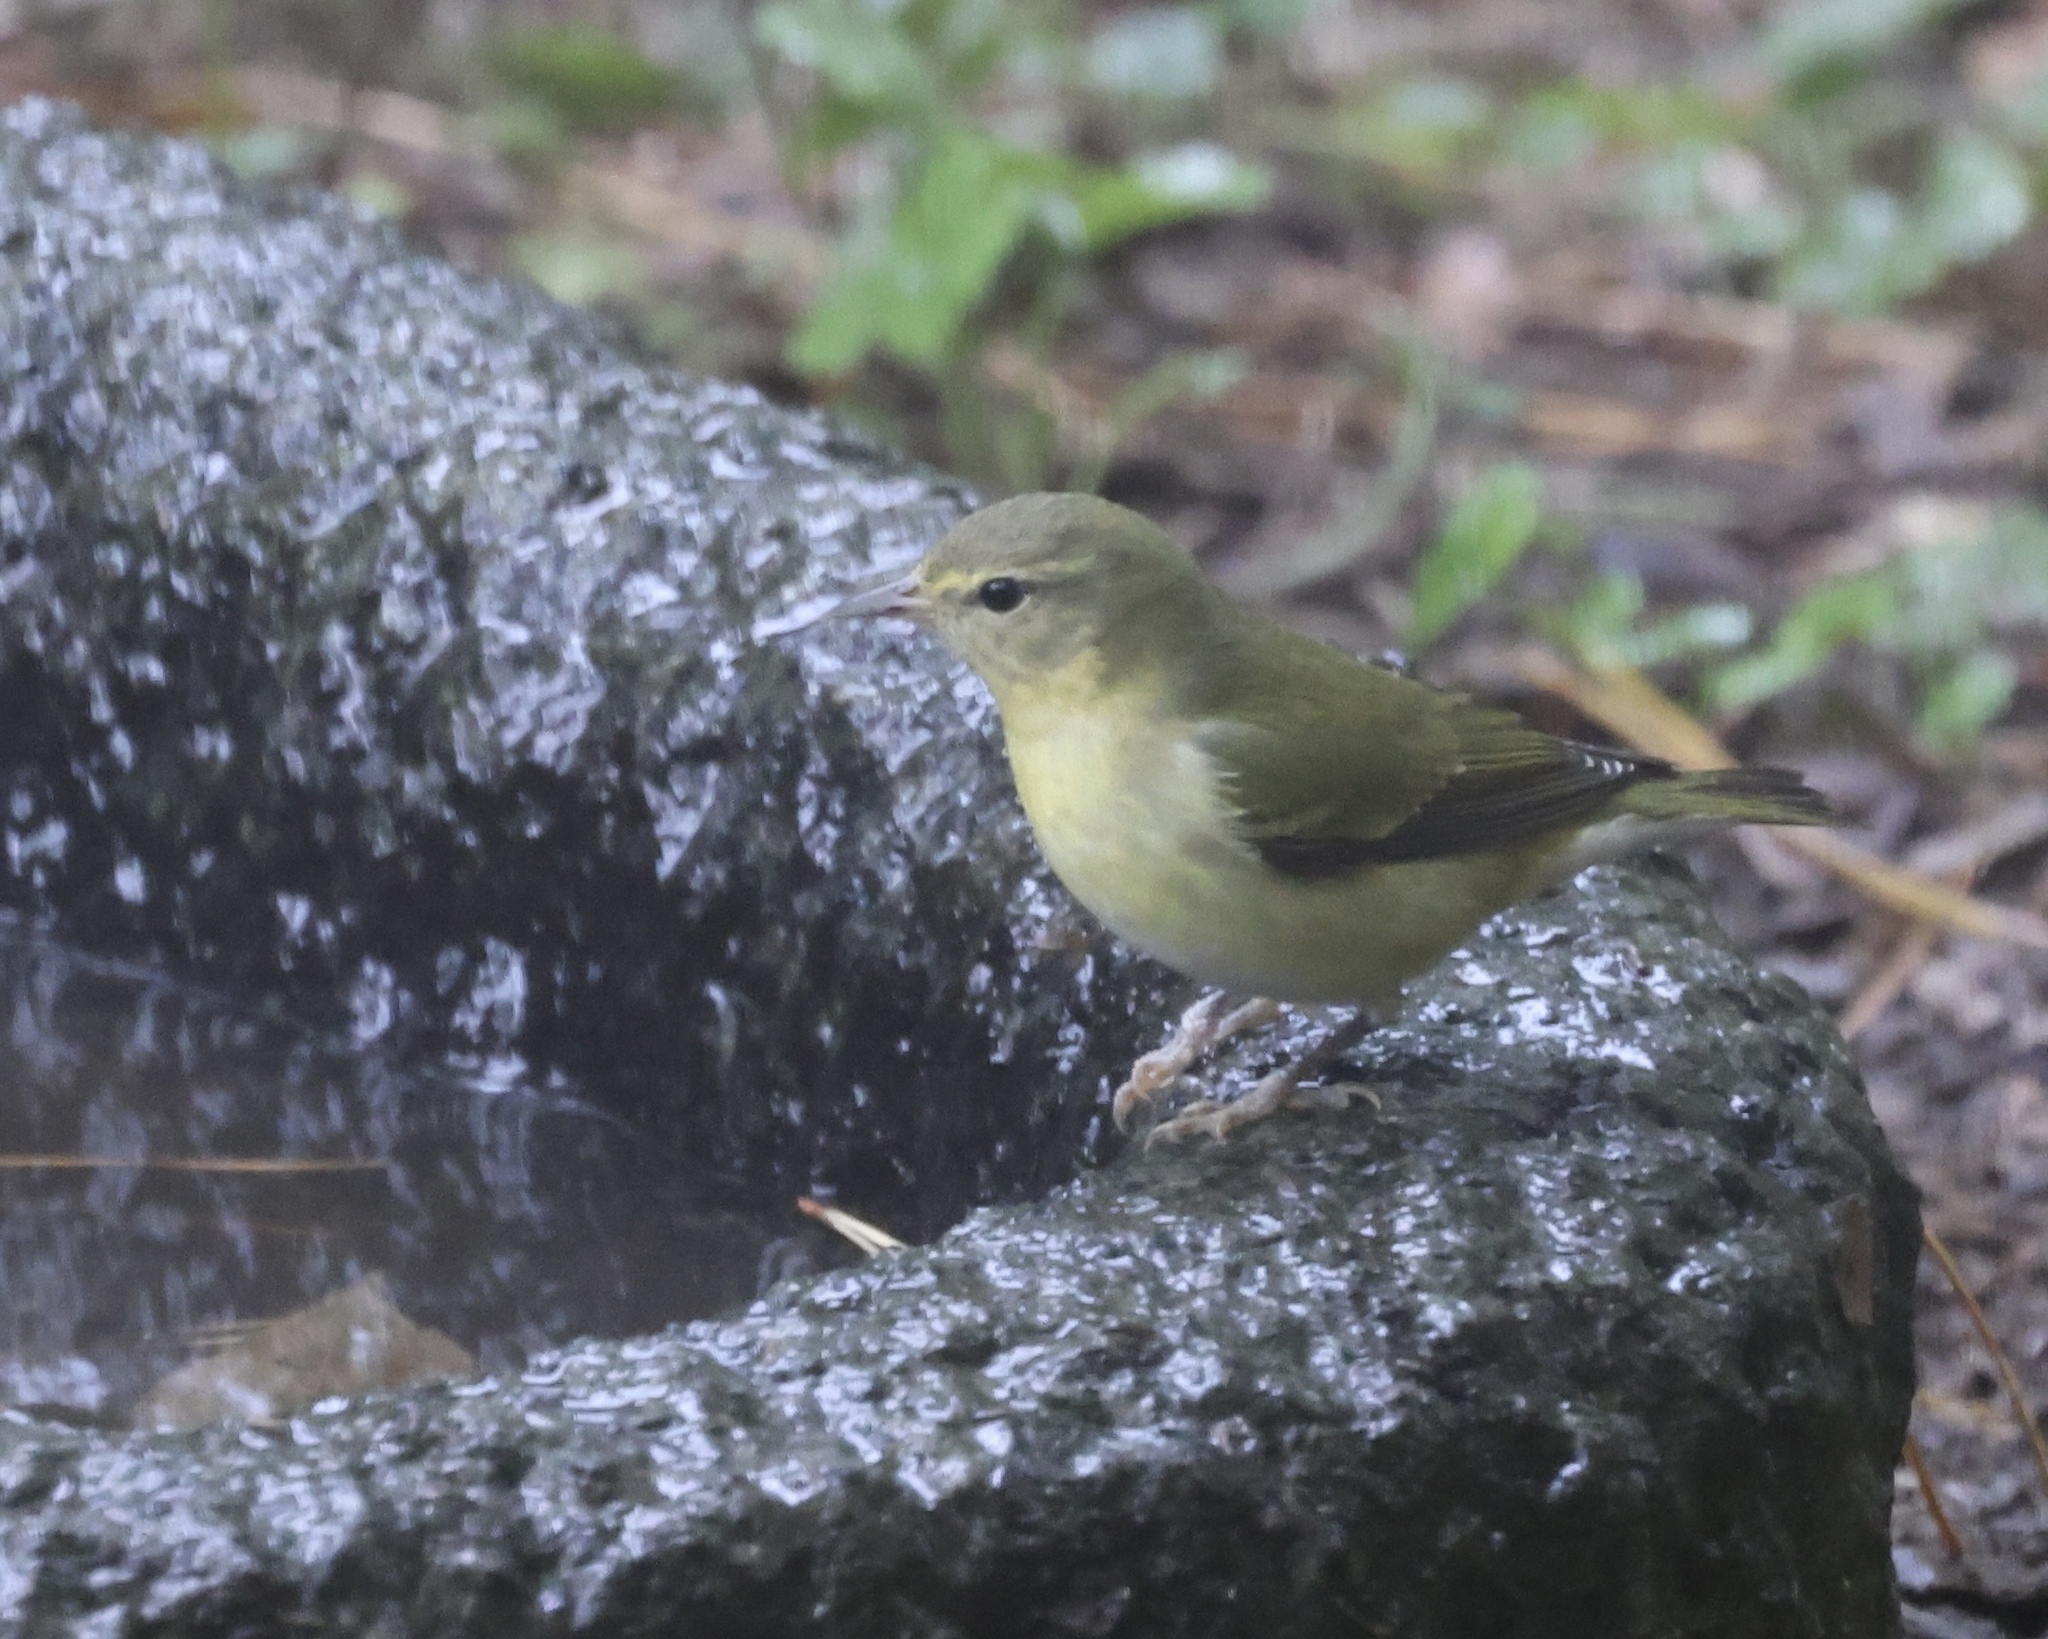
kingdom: Animalia
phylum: Chordata
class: Aves
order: Passeriformes
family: Parulidae
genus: Leiothlypis
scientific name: Leiothlypis peregrina
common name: Tennessee warbler
